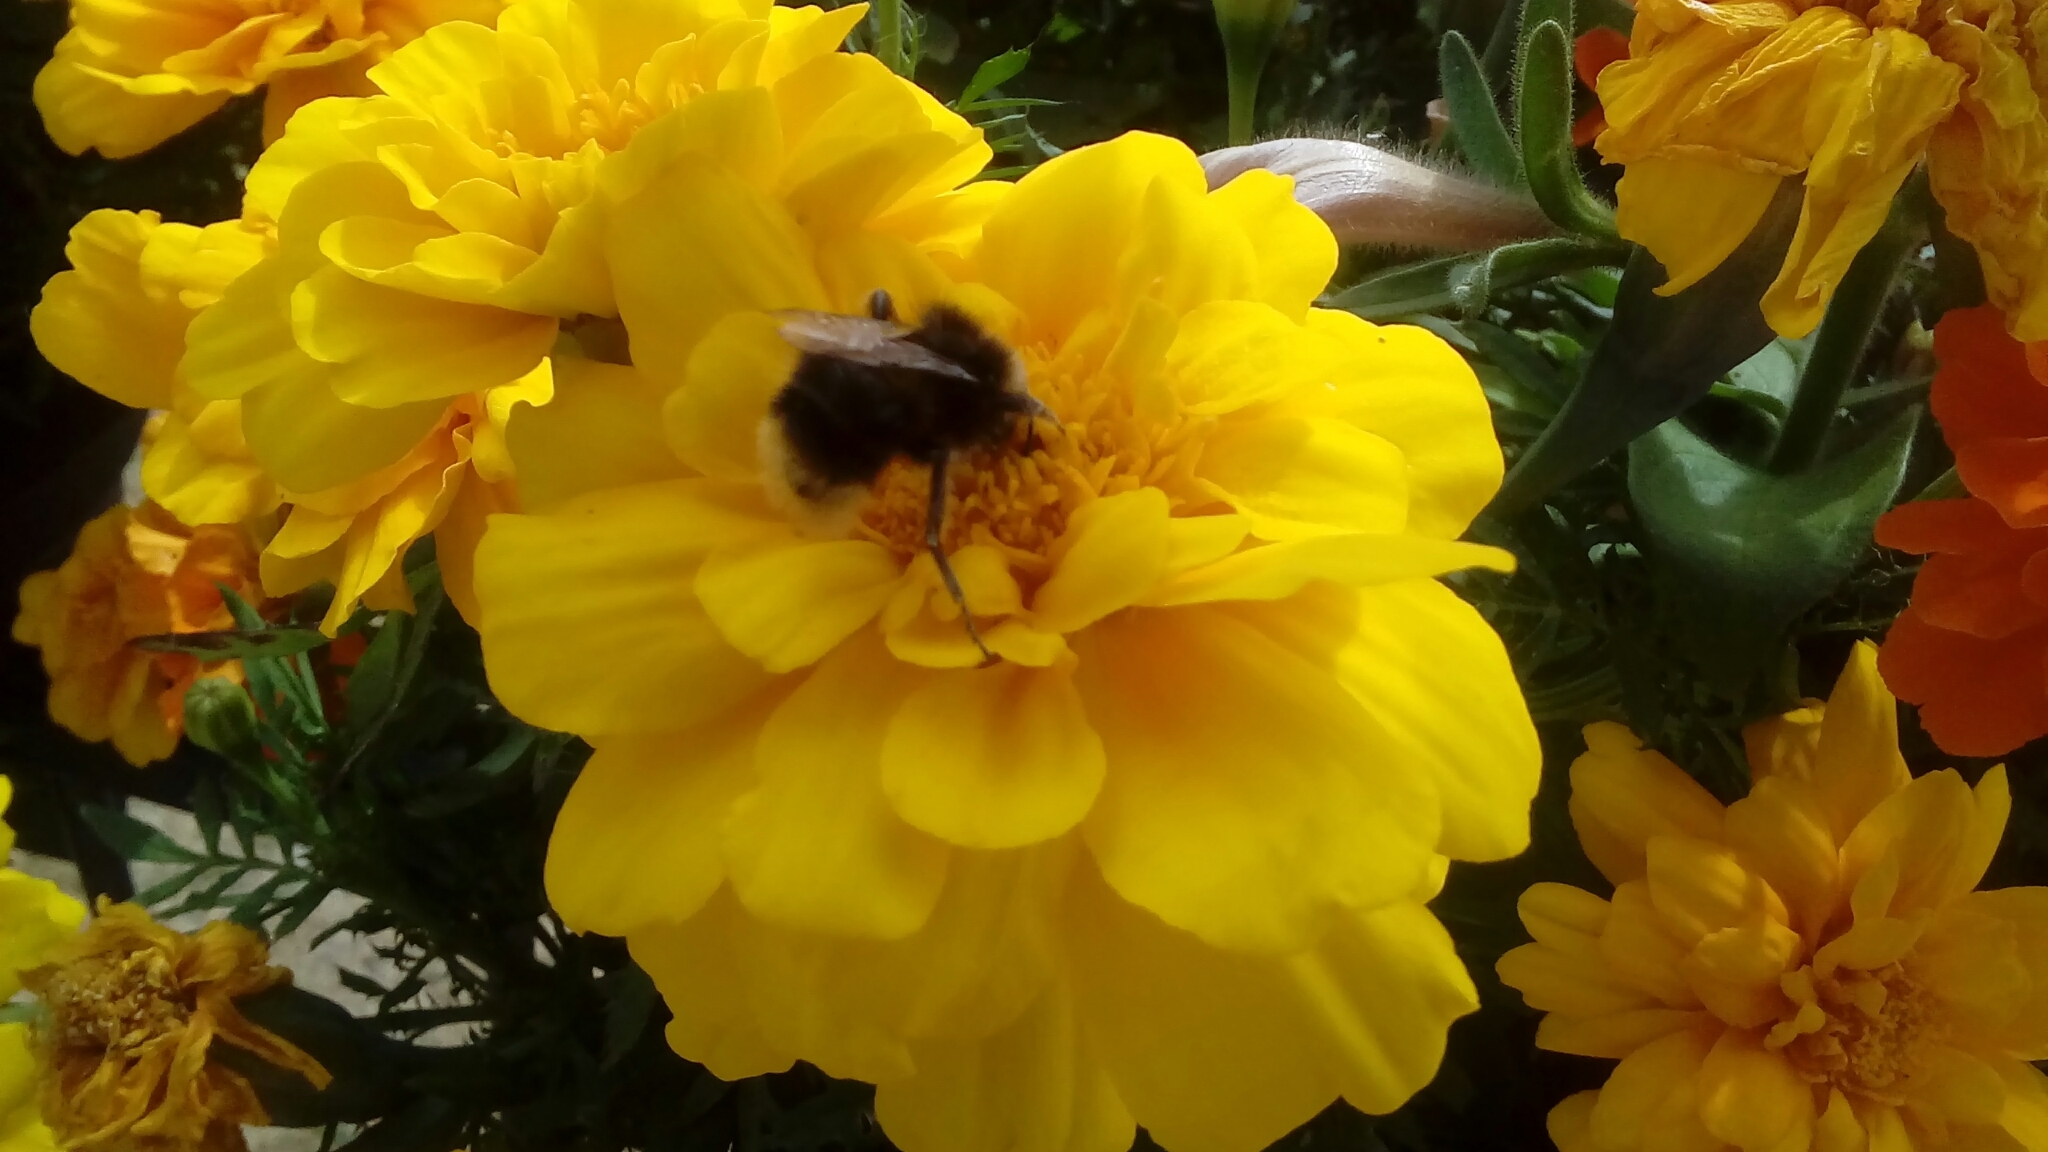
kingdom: Animalia
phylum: Arthropoda
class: Insecta
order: Hymenoptera
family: Apidae
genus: Bombus
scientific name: Bombus
